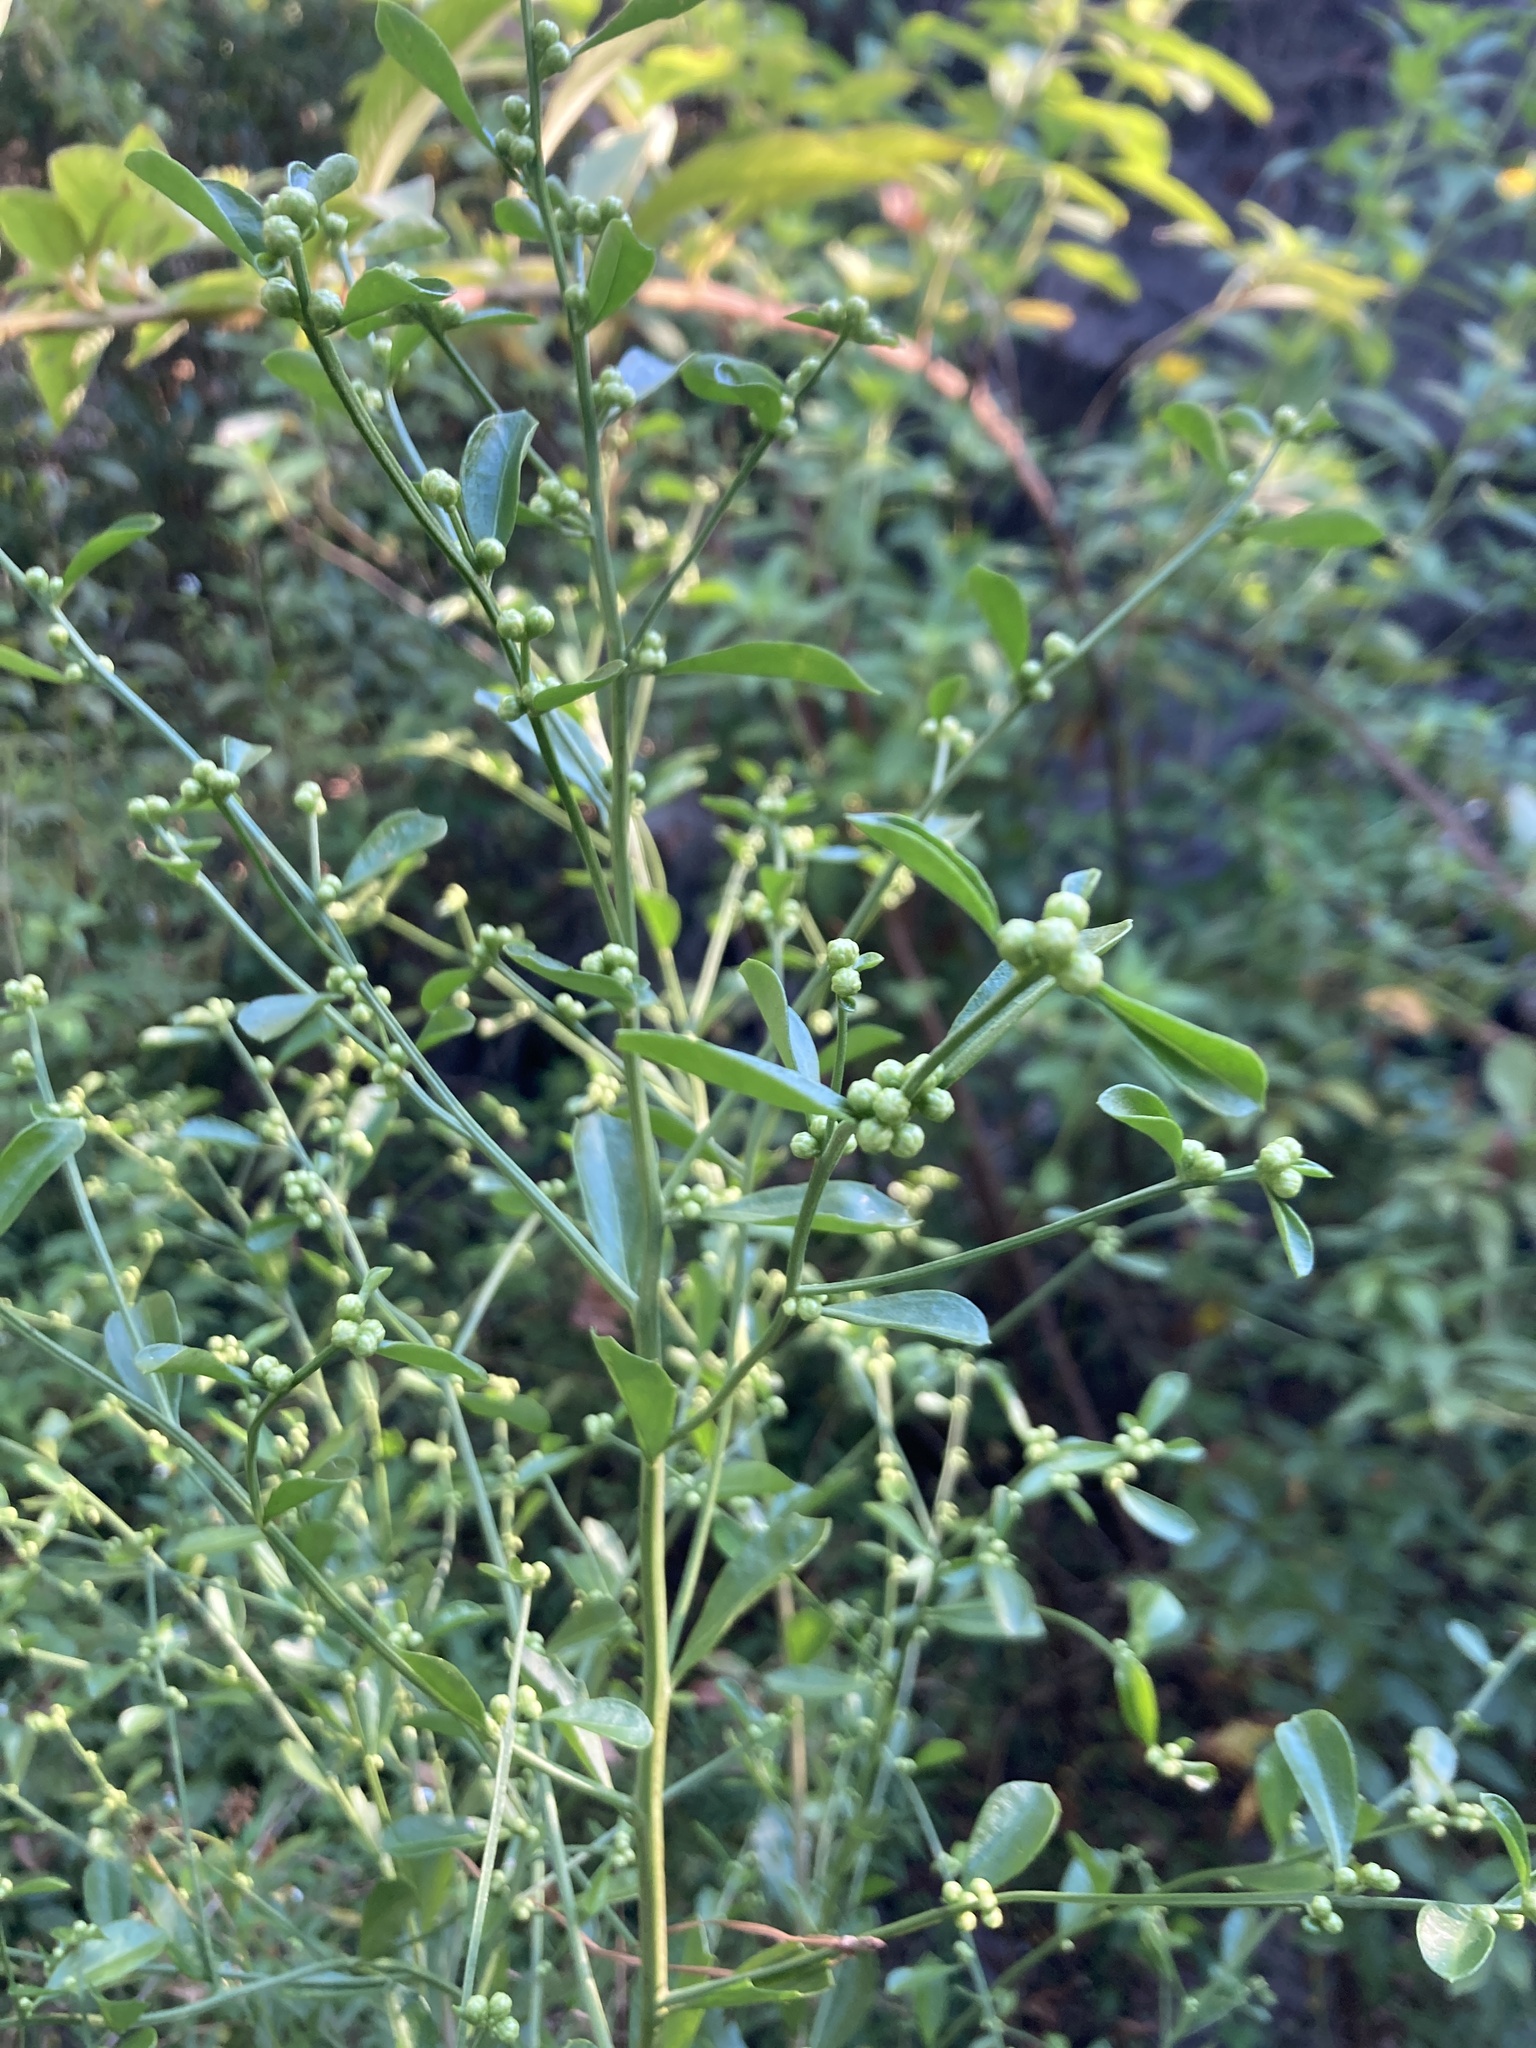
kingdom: Plantae
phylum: Tracheophyta
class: Magnoliopsida
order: Asterales
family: Asteraceae
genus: Baccharis
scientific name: Baccharis glomeruliflora
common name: Silverling groundsel bush
